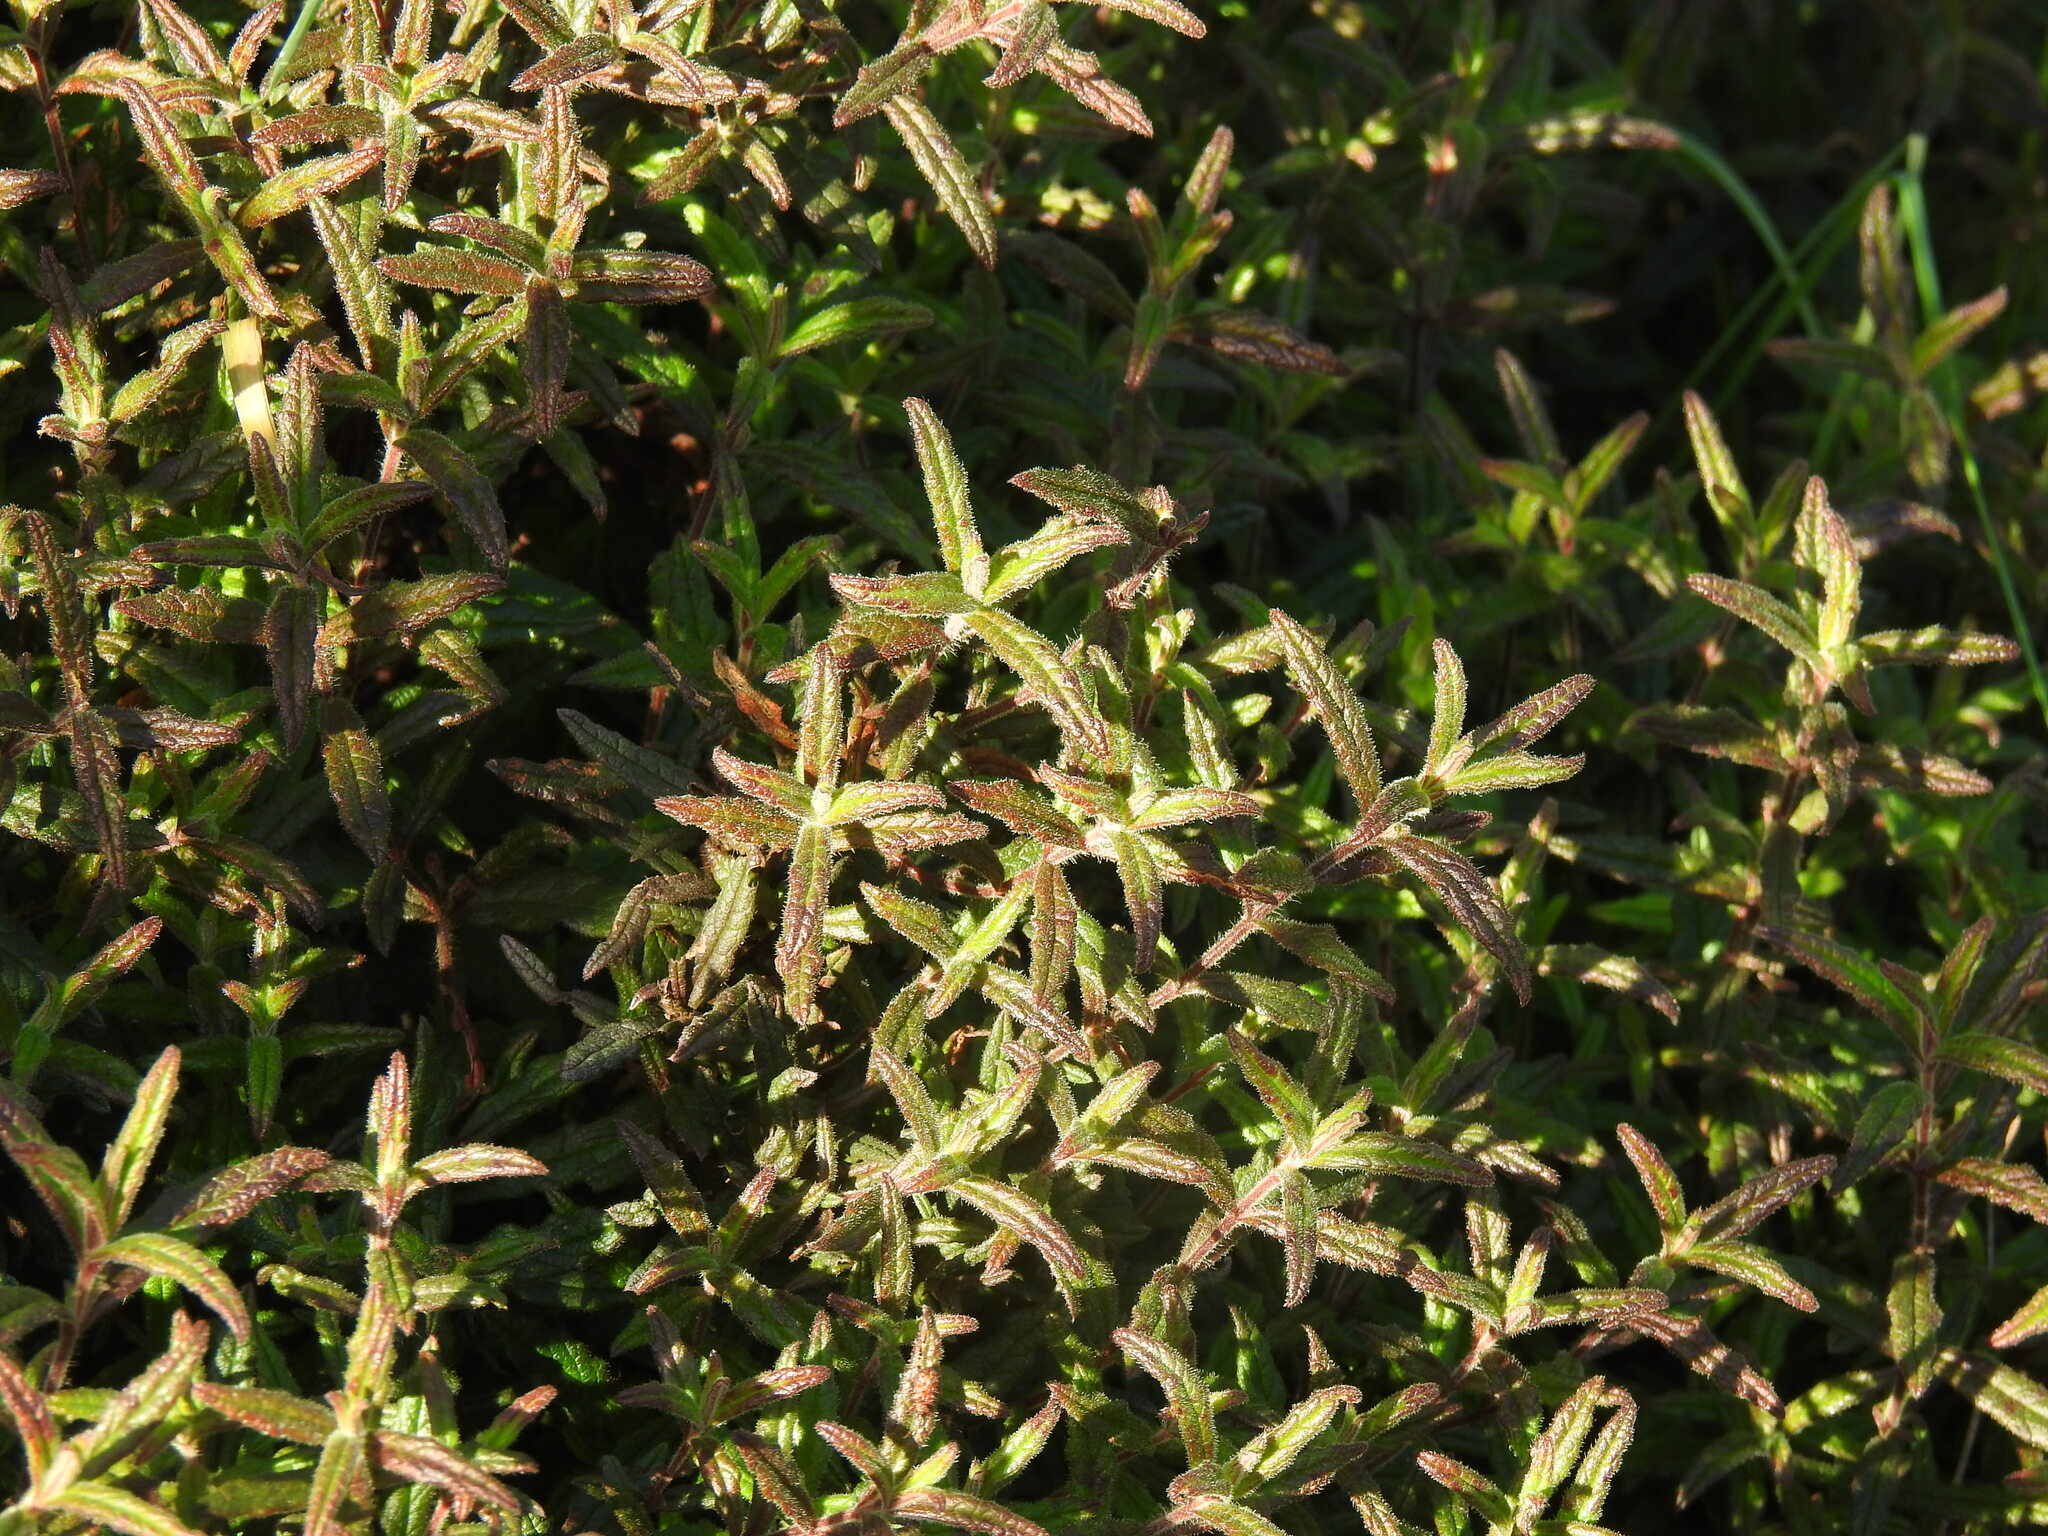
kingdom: Plantae
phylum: Tracheophyta
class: Magnoliopsida
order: Malvales
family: Cistaceae
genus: Cistus
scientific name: Cistus inflatus
